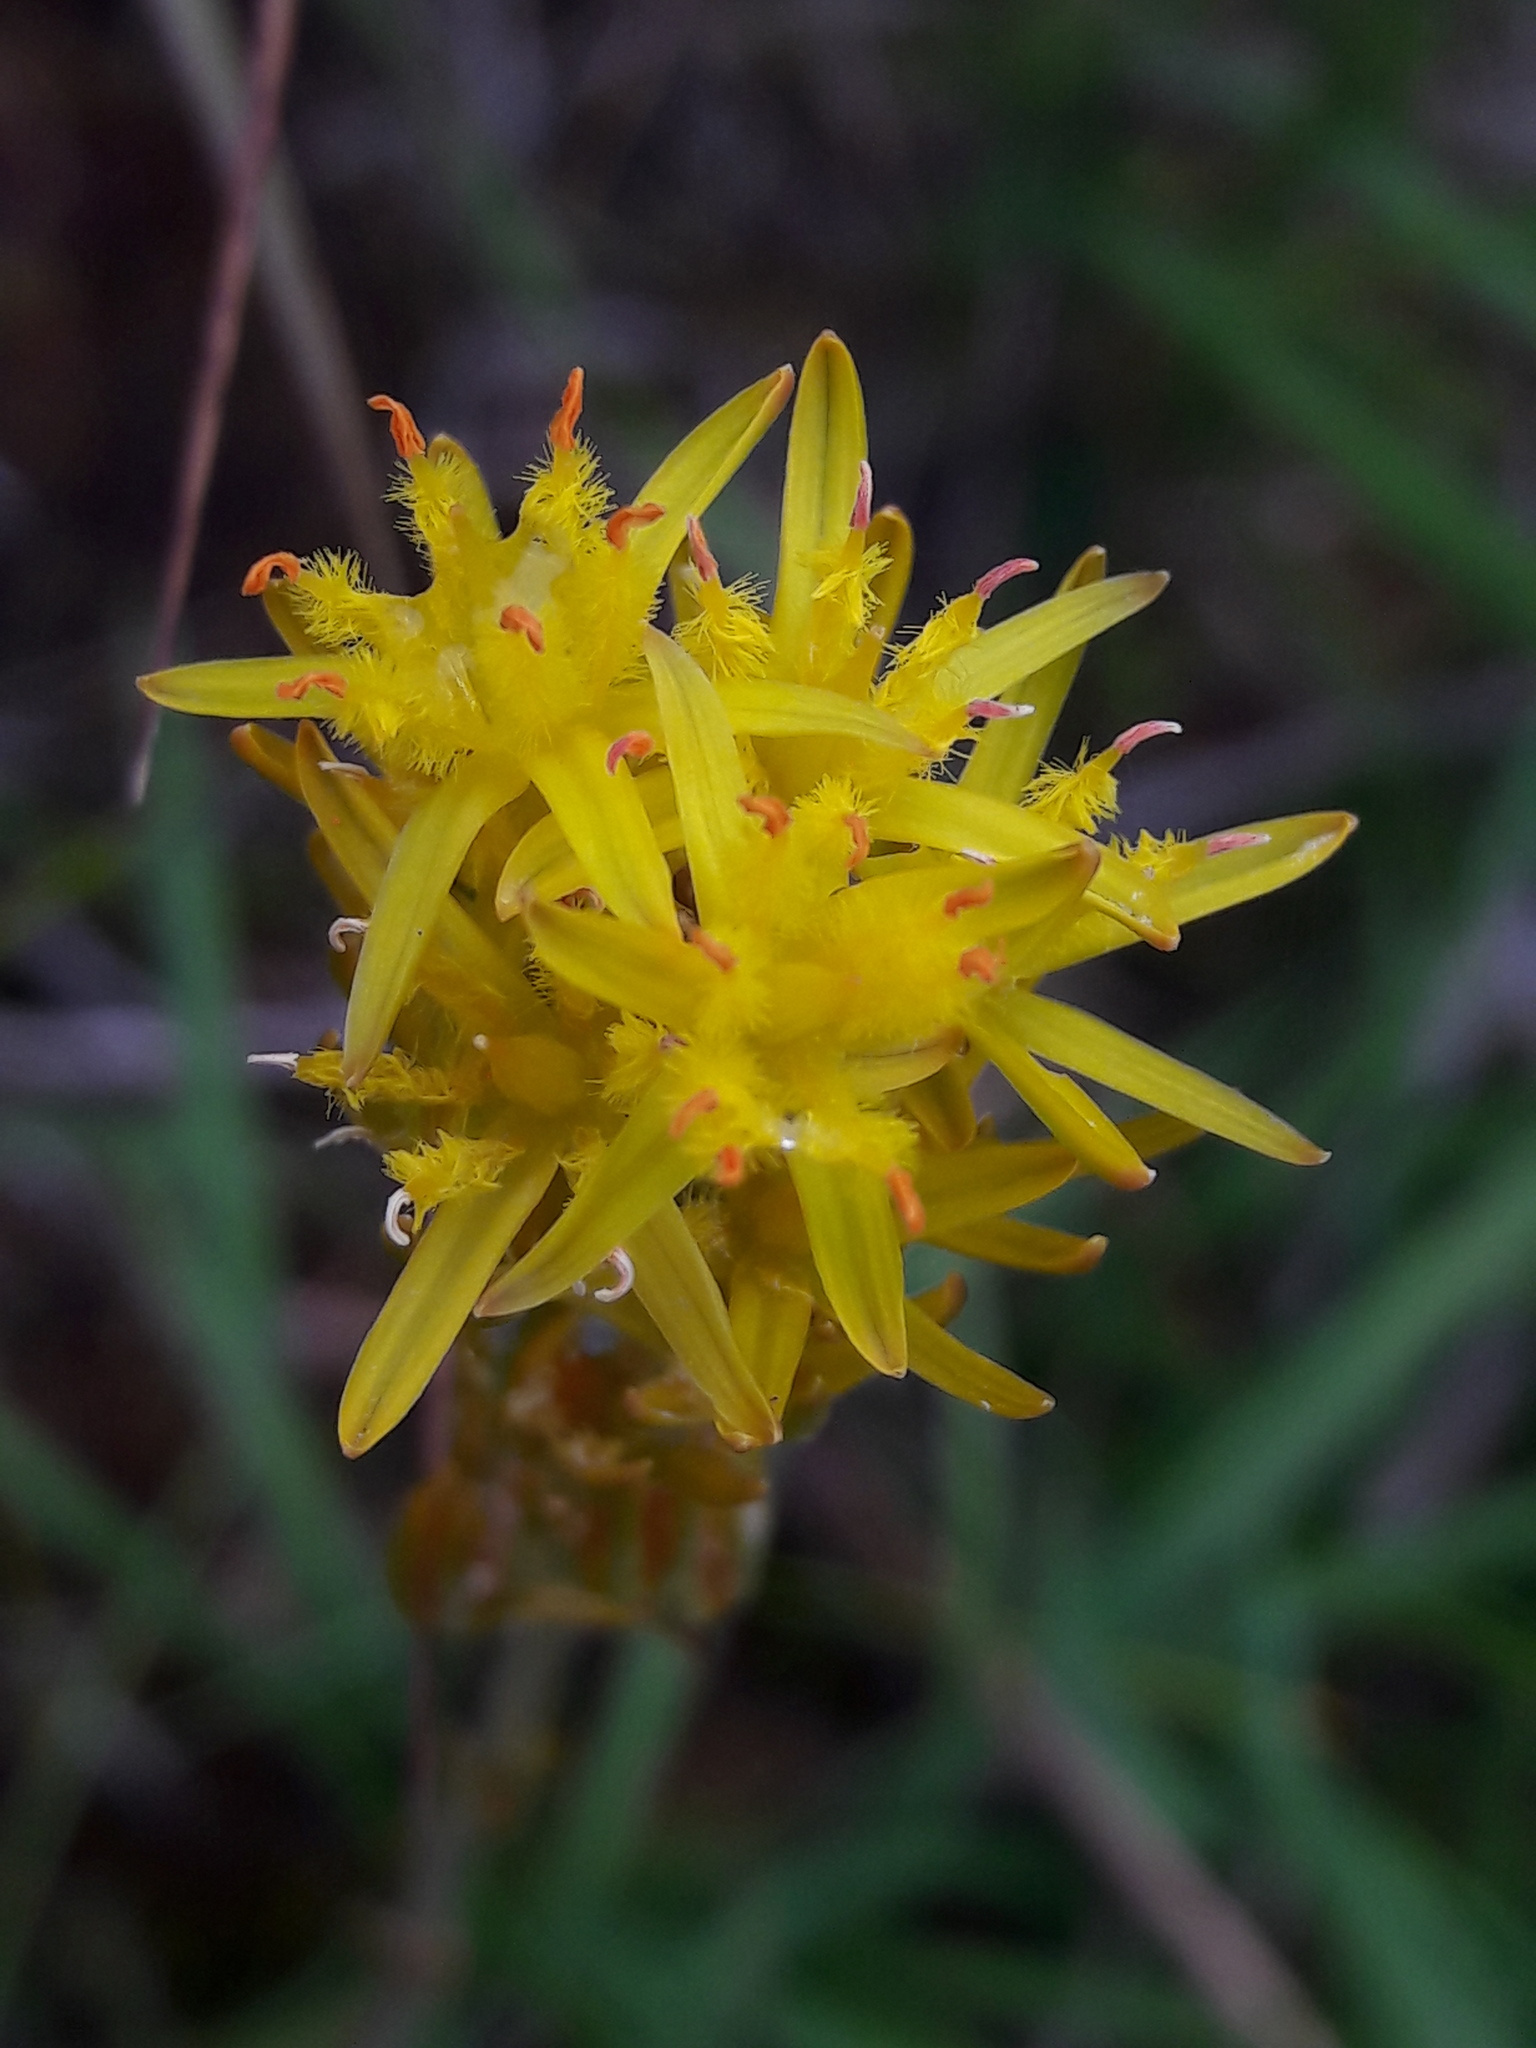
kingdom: Plantae
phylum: Tracheophyta
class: Liliopsida
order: Dioscoreales
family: Nartheciaceae
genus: Narthecium
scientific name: Narthecium ossifragum
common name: Bog asphodel
